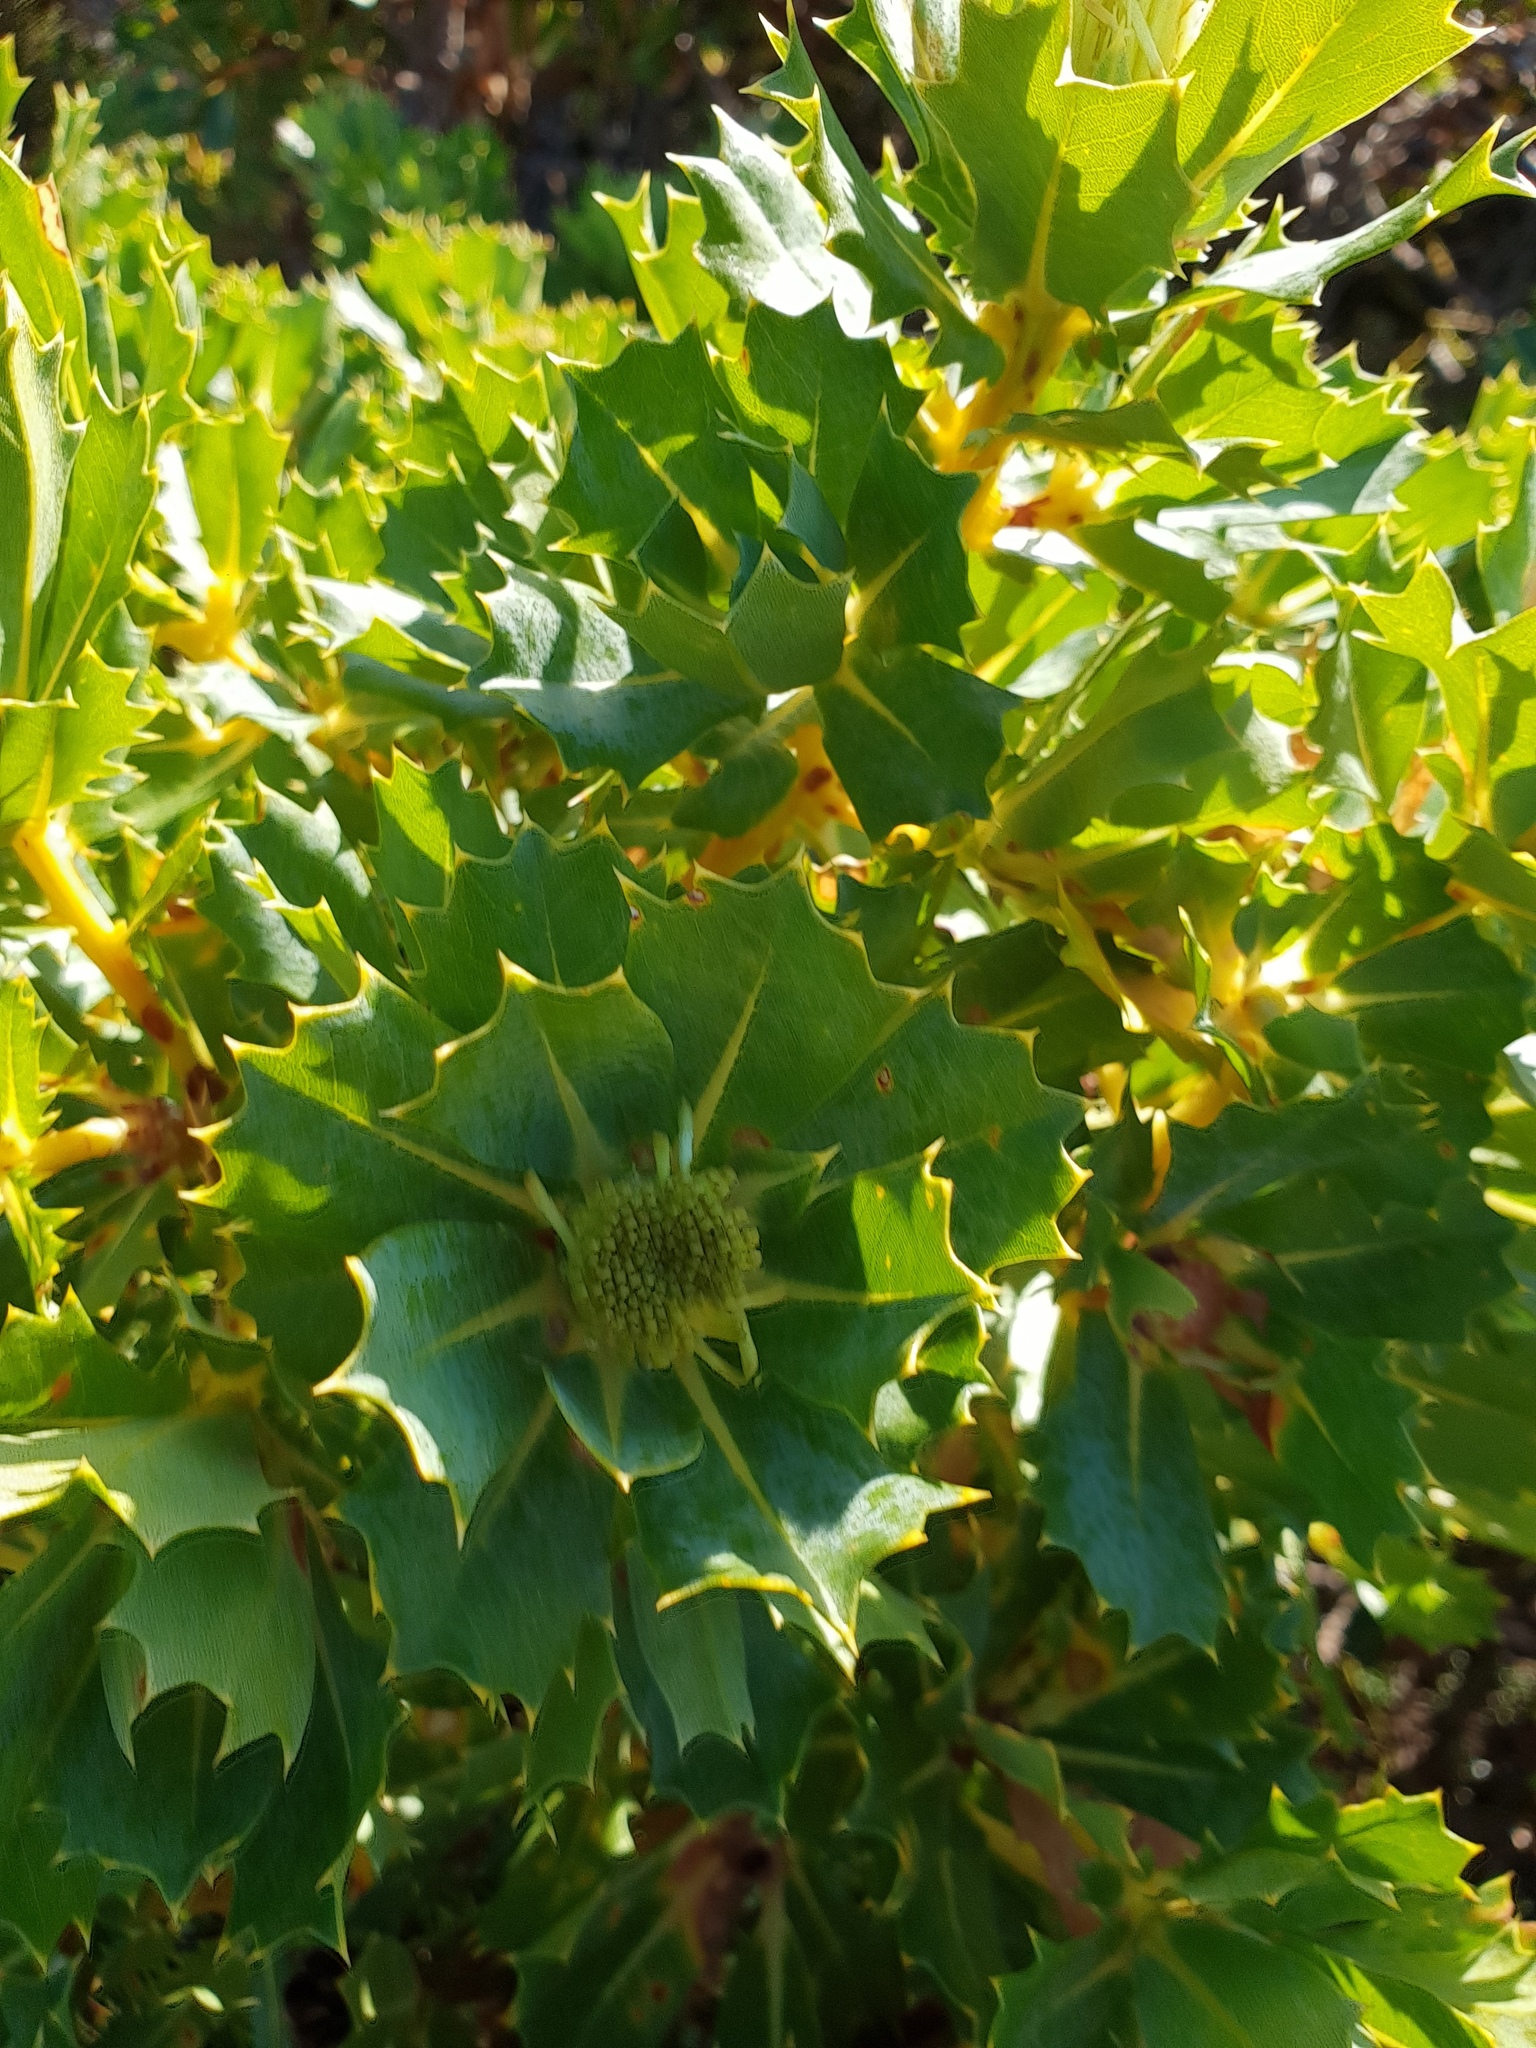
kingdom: Plantae
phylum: Tracheophyta
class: Magnoliopsida
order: Proteales
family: Proteaceae
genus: Banksia
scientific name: Banksia sessilis
